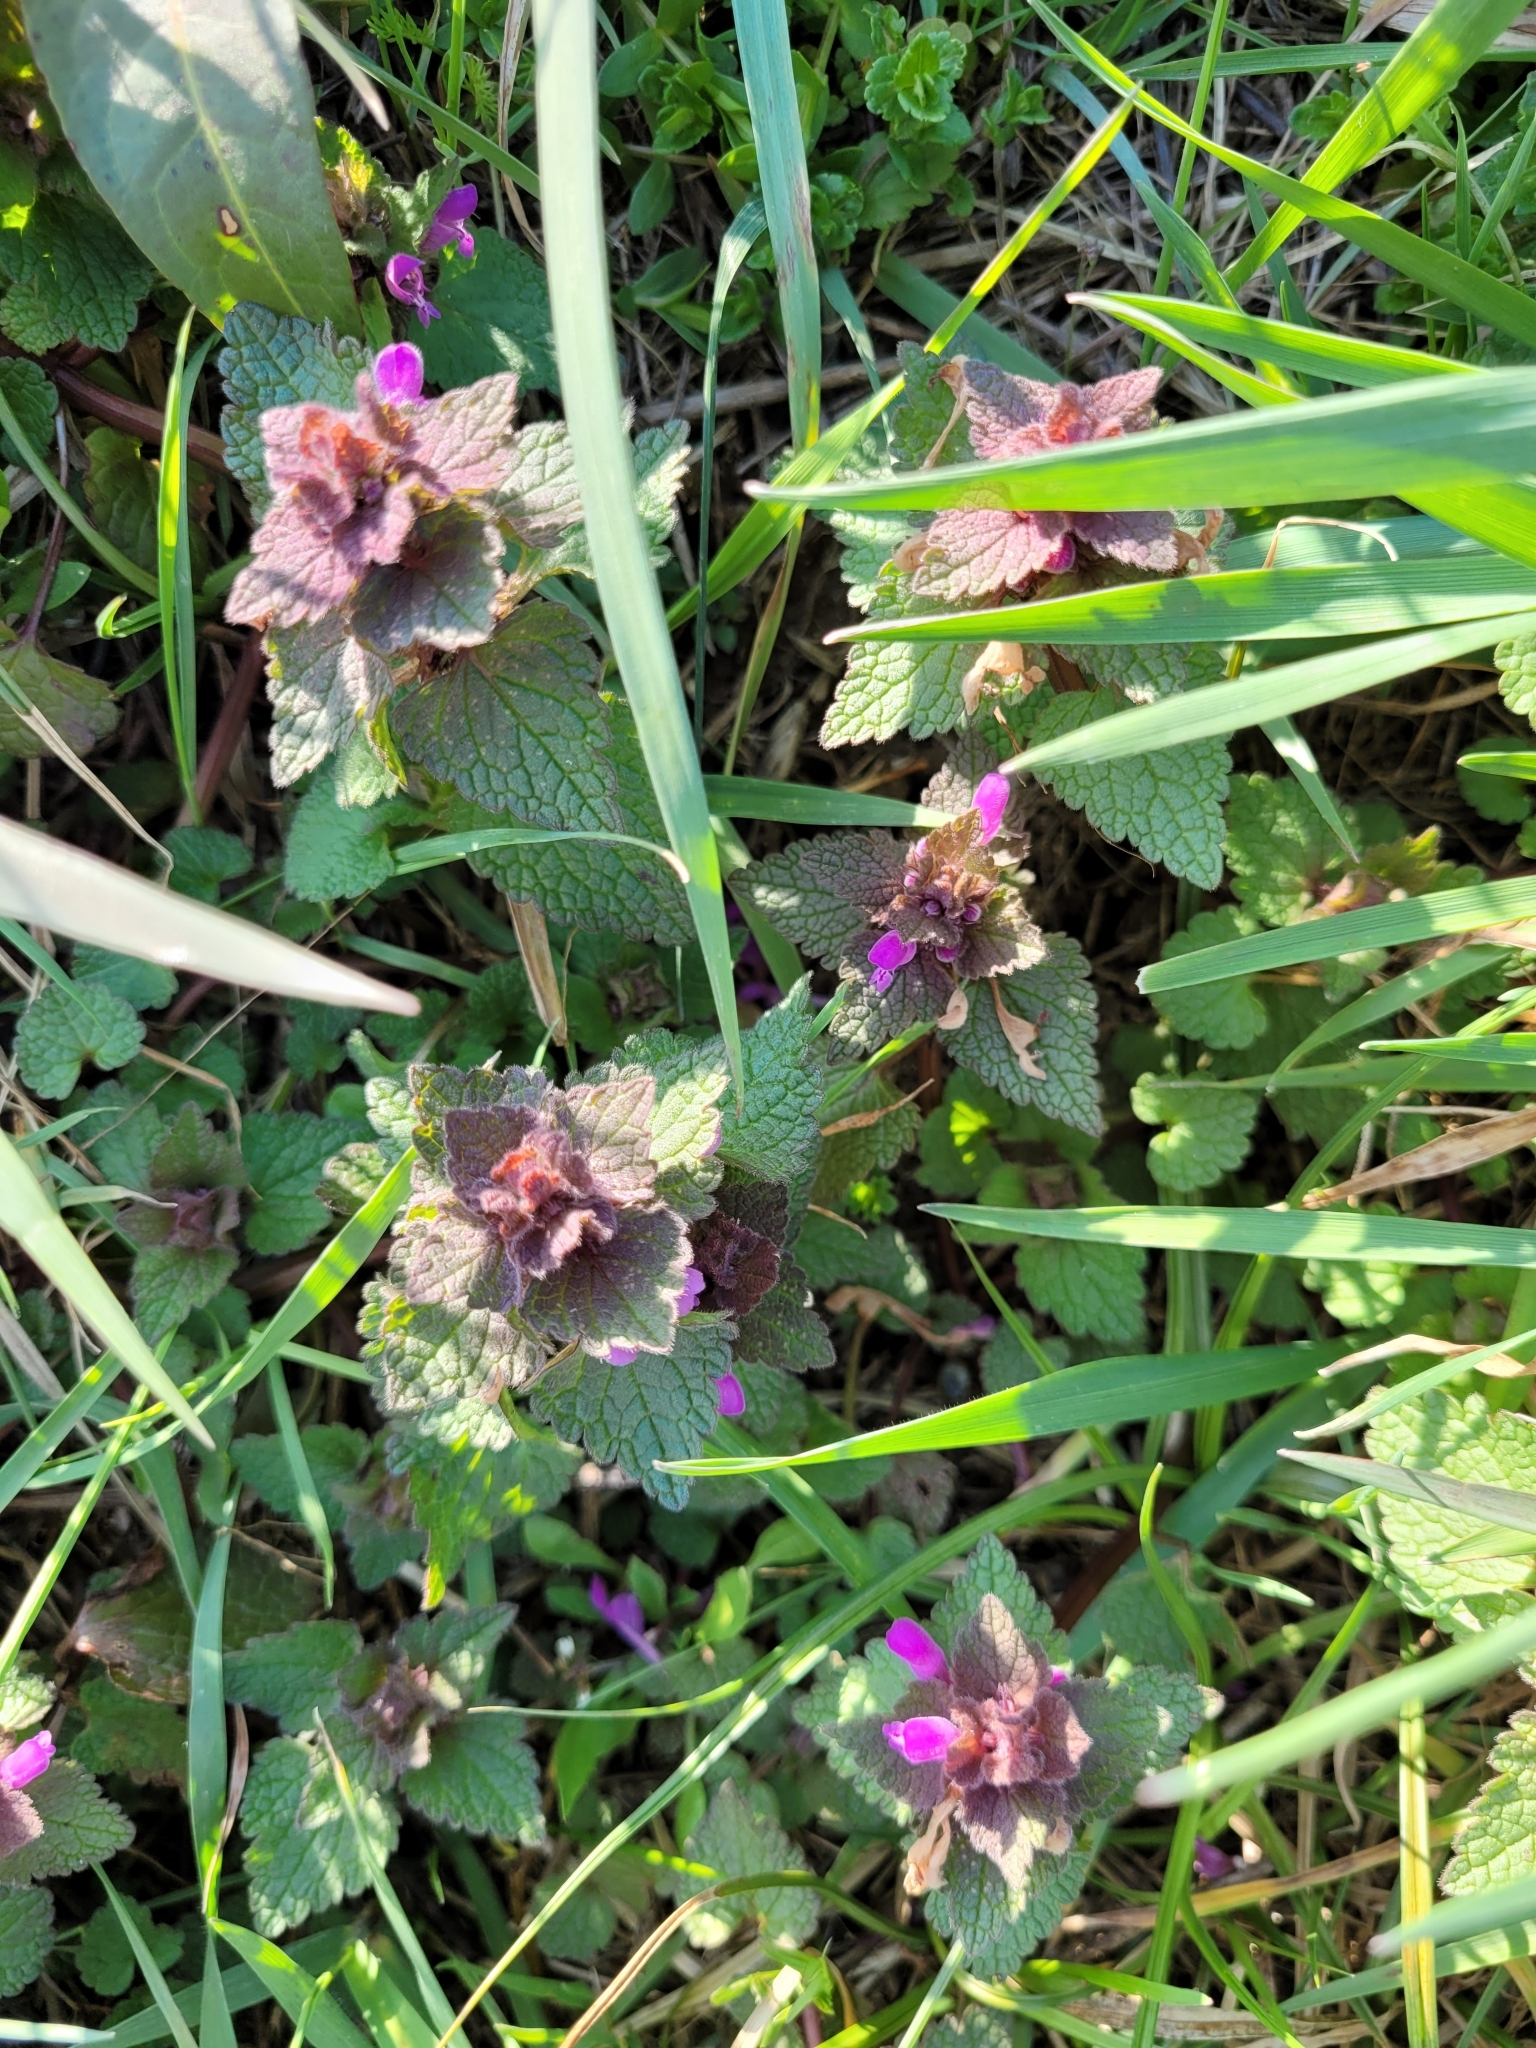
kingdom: Plantae
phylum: Tracheophyta
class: Magnoliopsida
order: Lamiales
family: Lamiaceae
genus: Lamium
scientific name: Lamium purpureum
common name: Red dead-nettle
